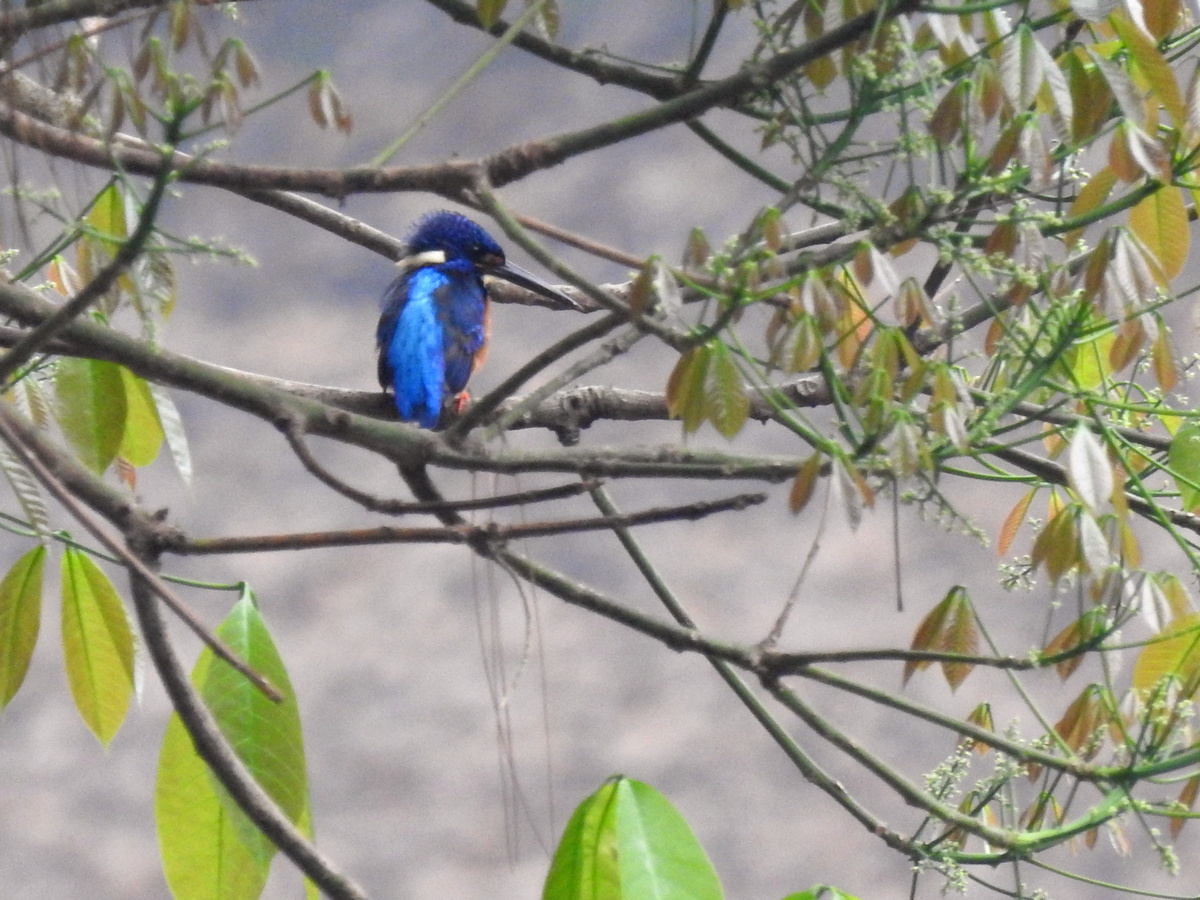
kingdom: Animalia
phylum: Chordata
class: Aves
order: Coraciiformes
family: Alcedinidae
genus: Alcedo
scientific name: Alcedo meninting
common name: Blue-eared kingfisher
